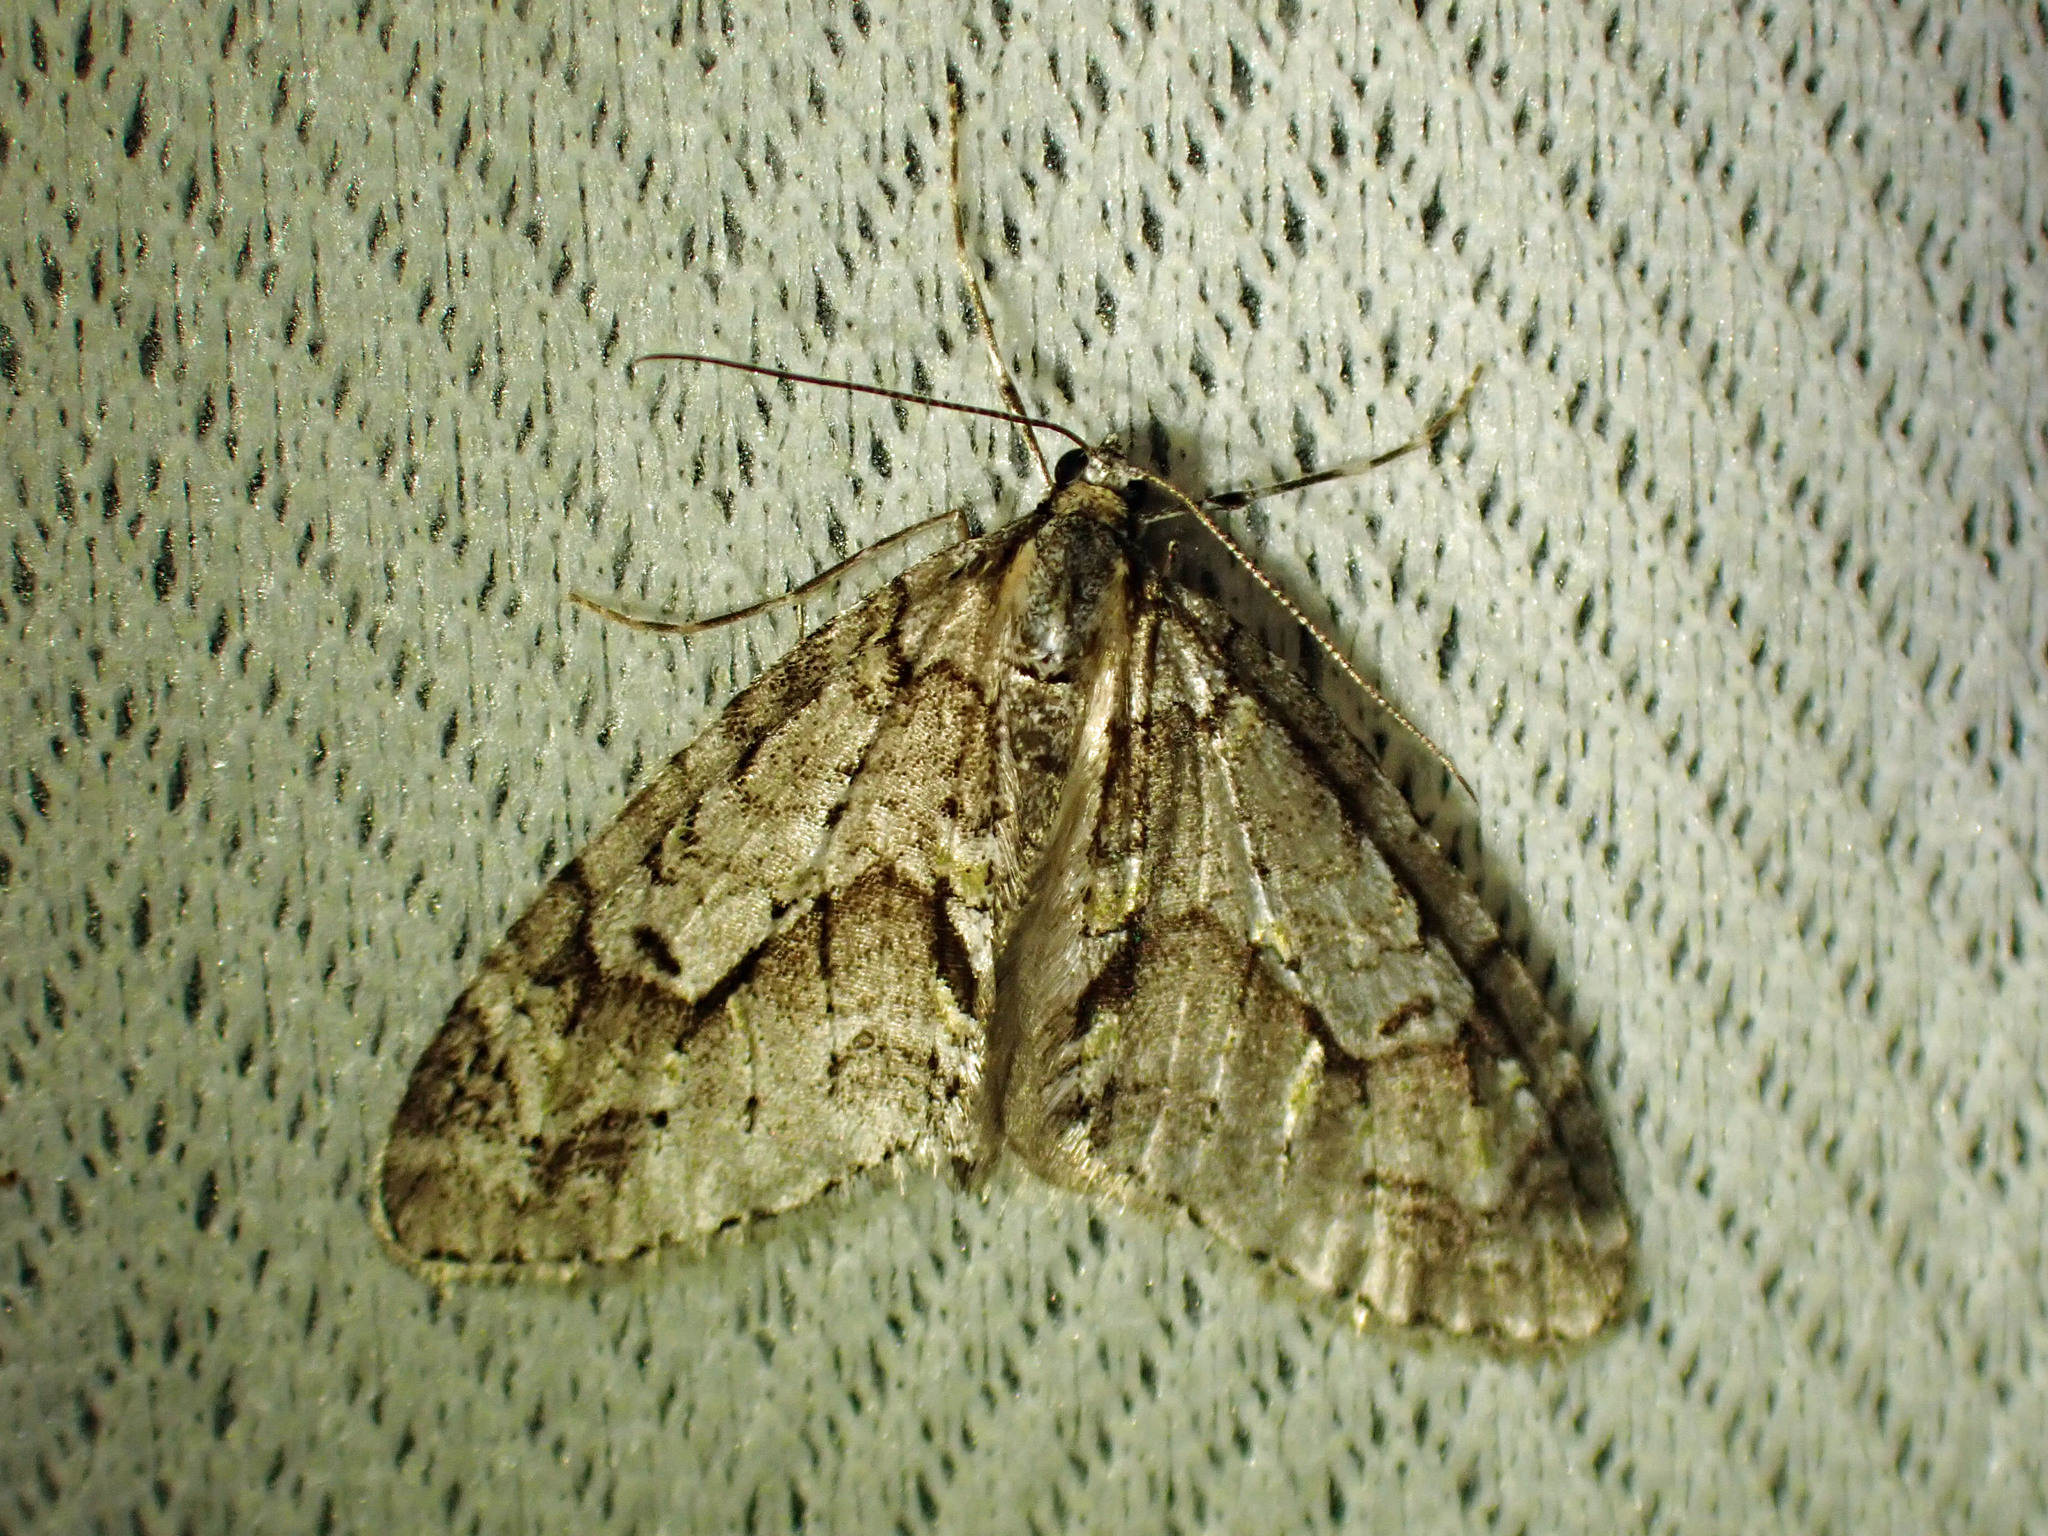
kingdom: Animalia
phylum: Arthropoda
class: Insecta
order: Lepidoptera
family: Geometridae
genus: Cladara
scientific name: Cladara limitaria
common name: Mottled gray carpet
